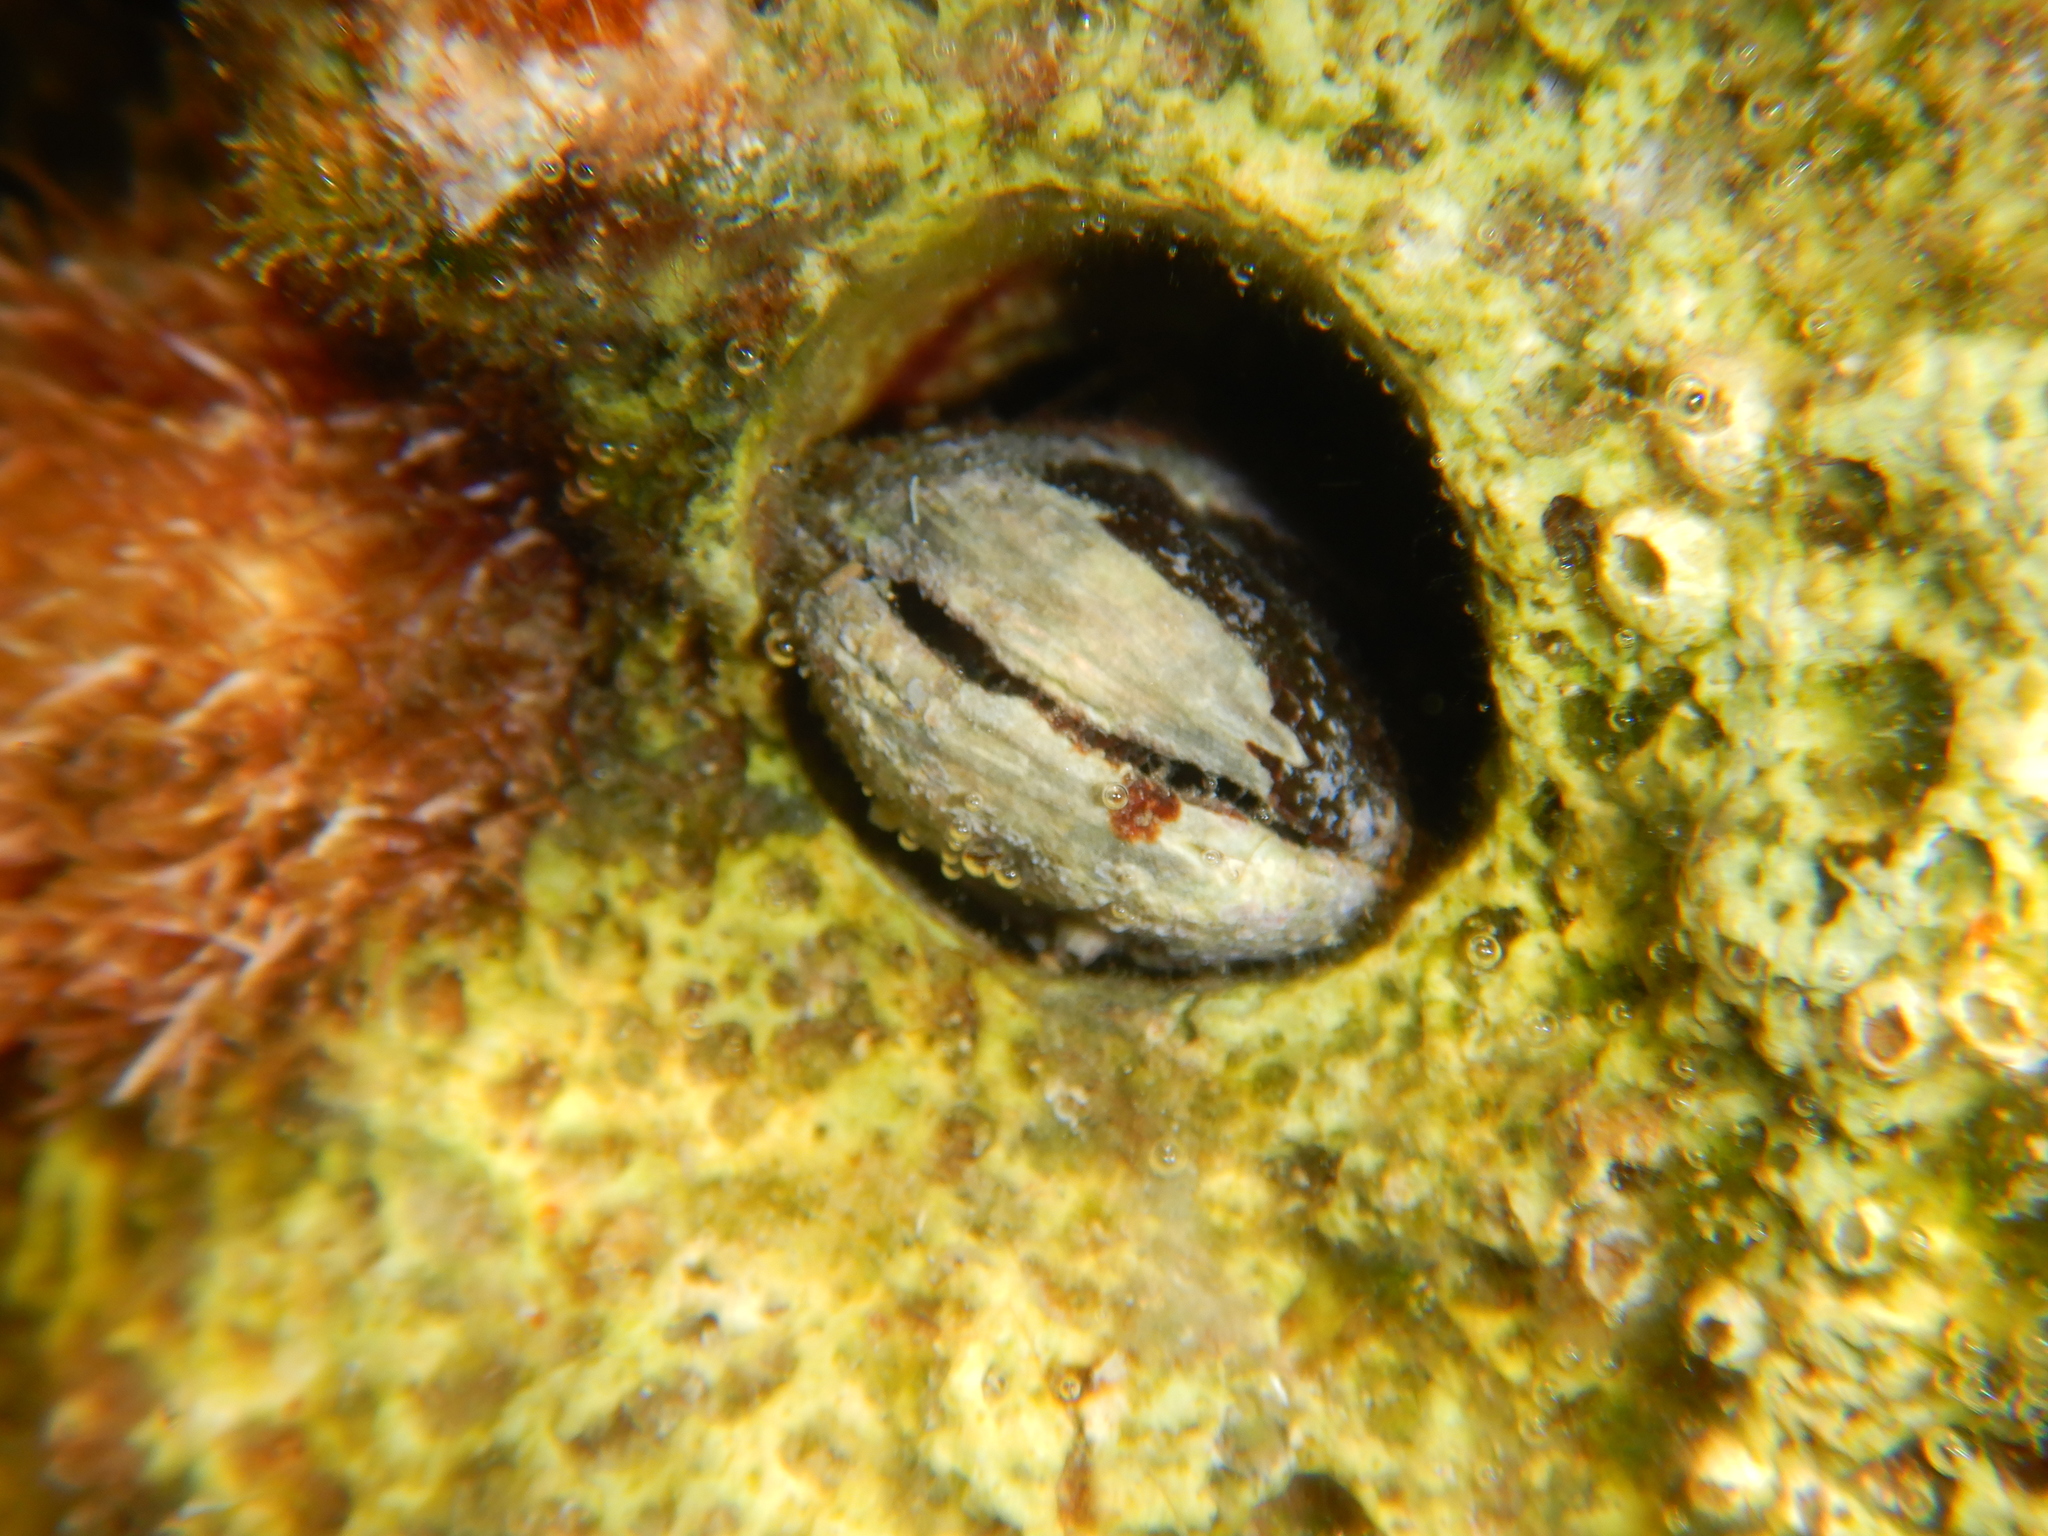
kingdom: Animalia
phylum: Mollusca
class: Bivalvia
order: Mytilida
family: Mytilidae
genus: Lithophaga
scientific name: Lithophaga lithophaga
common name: European date mussel
